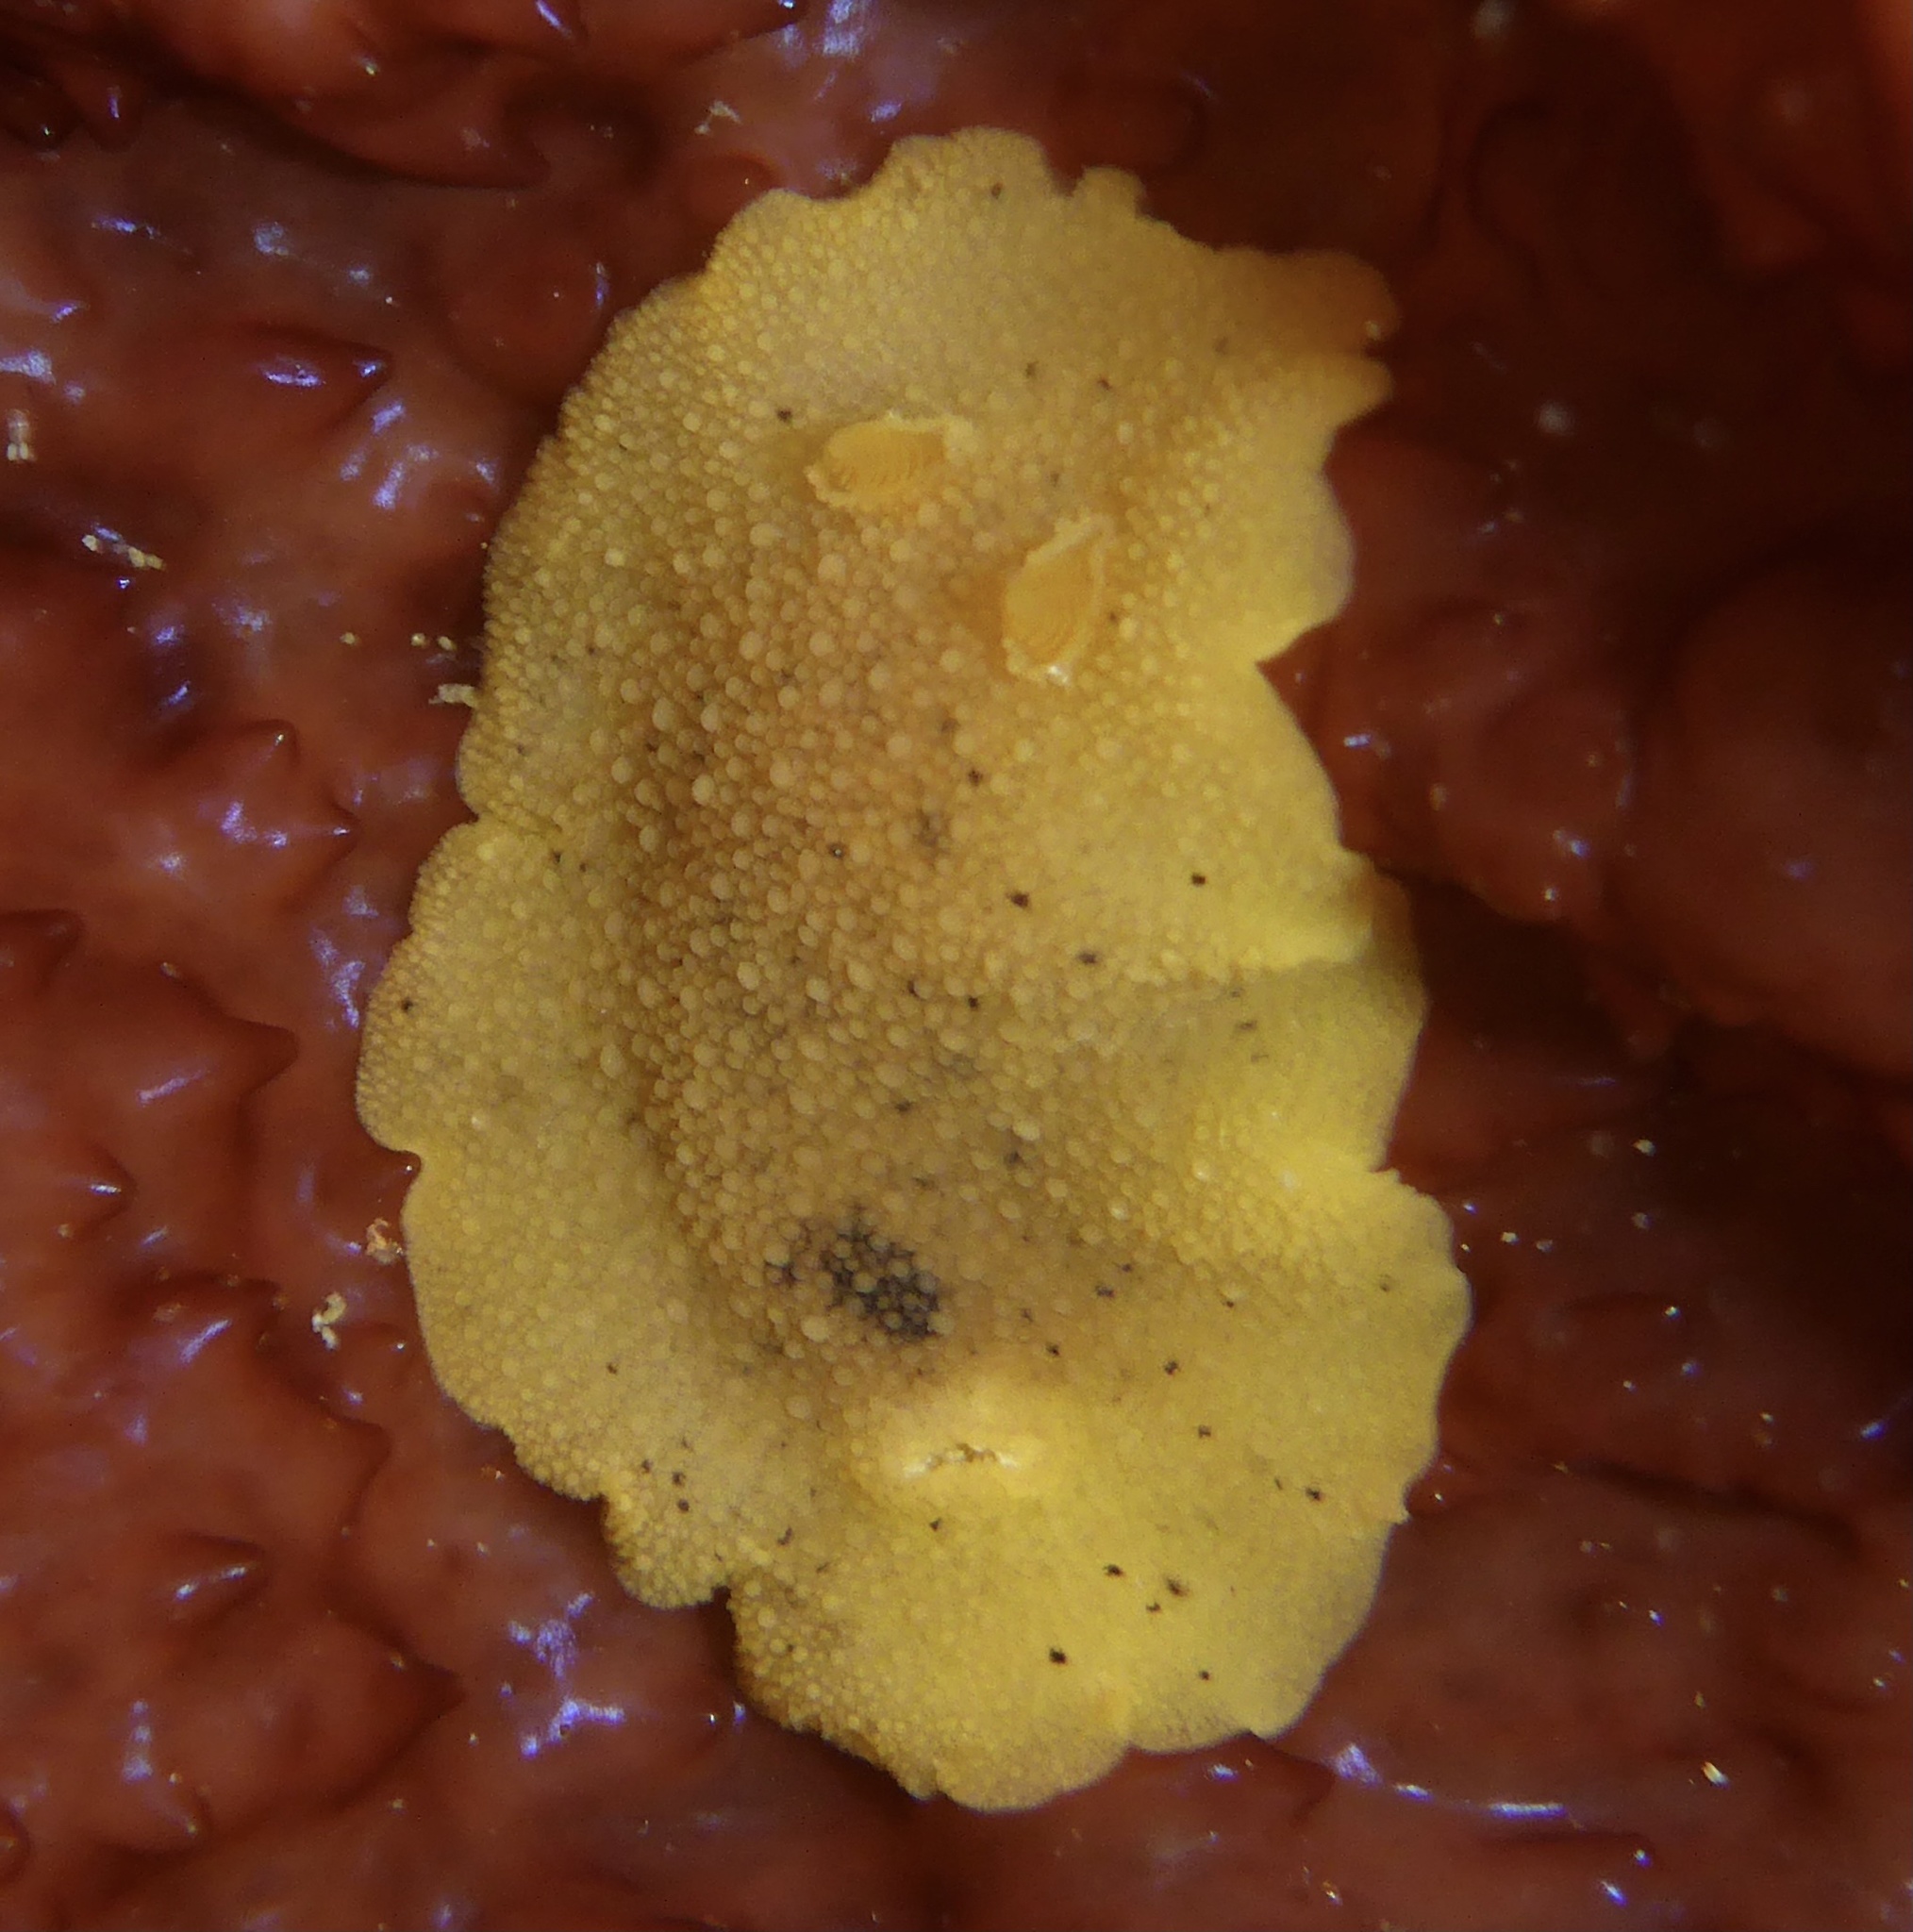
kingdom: Animalia
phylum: Mollusca
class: Gastropoda
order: Nudibranchia
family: Discodorididae
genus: Geitodoris
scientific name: Geitodoris heathi
